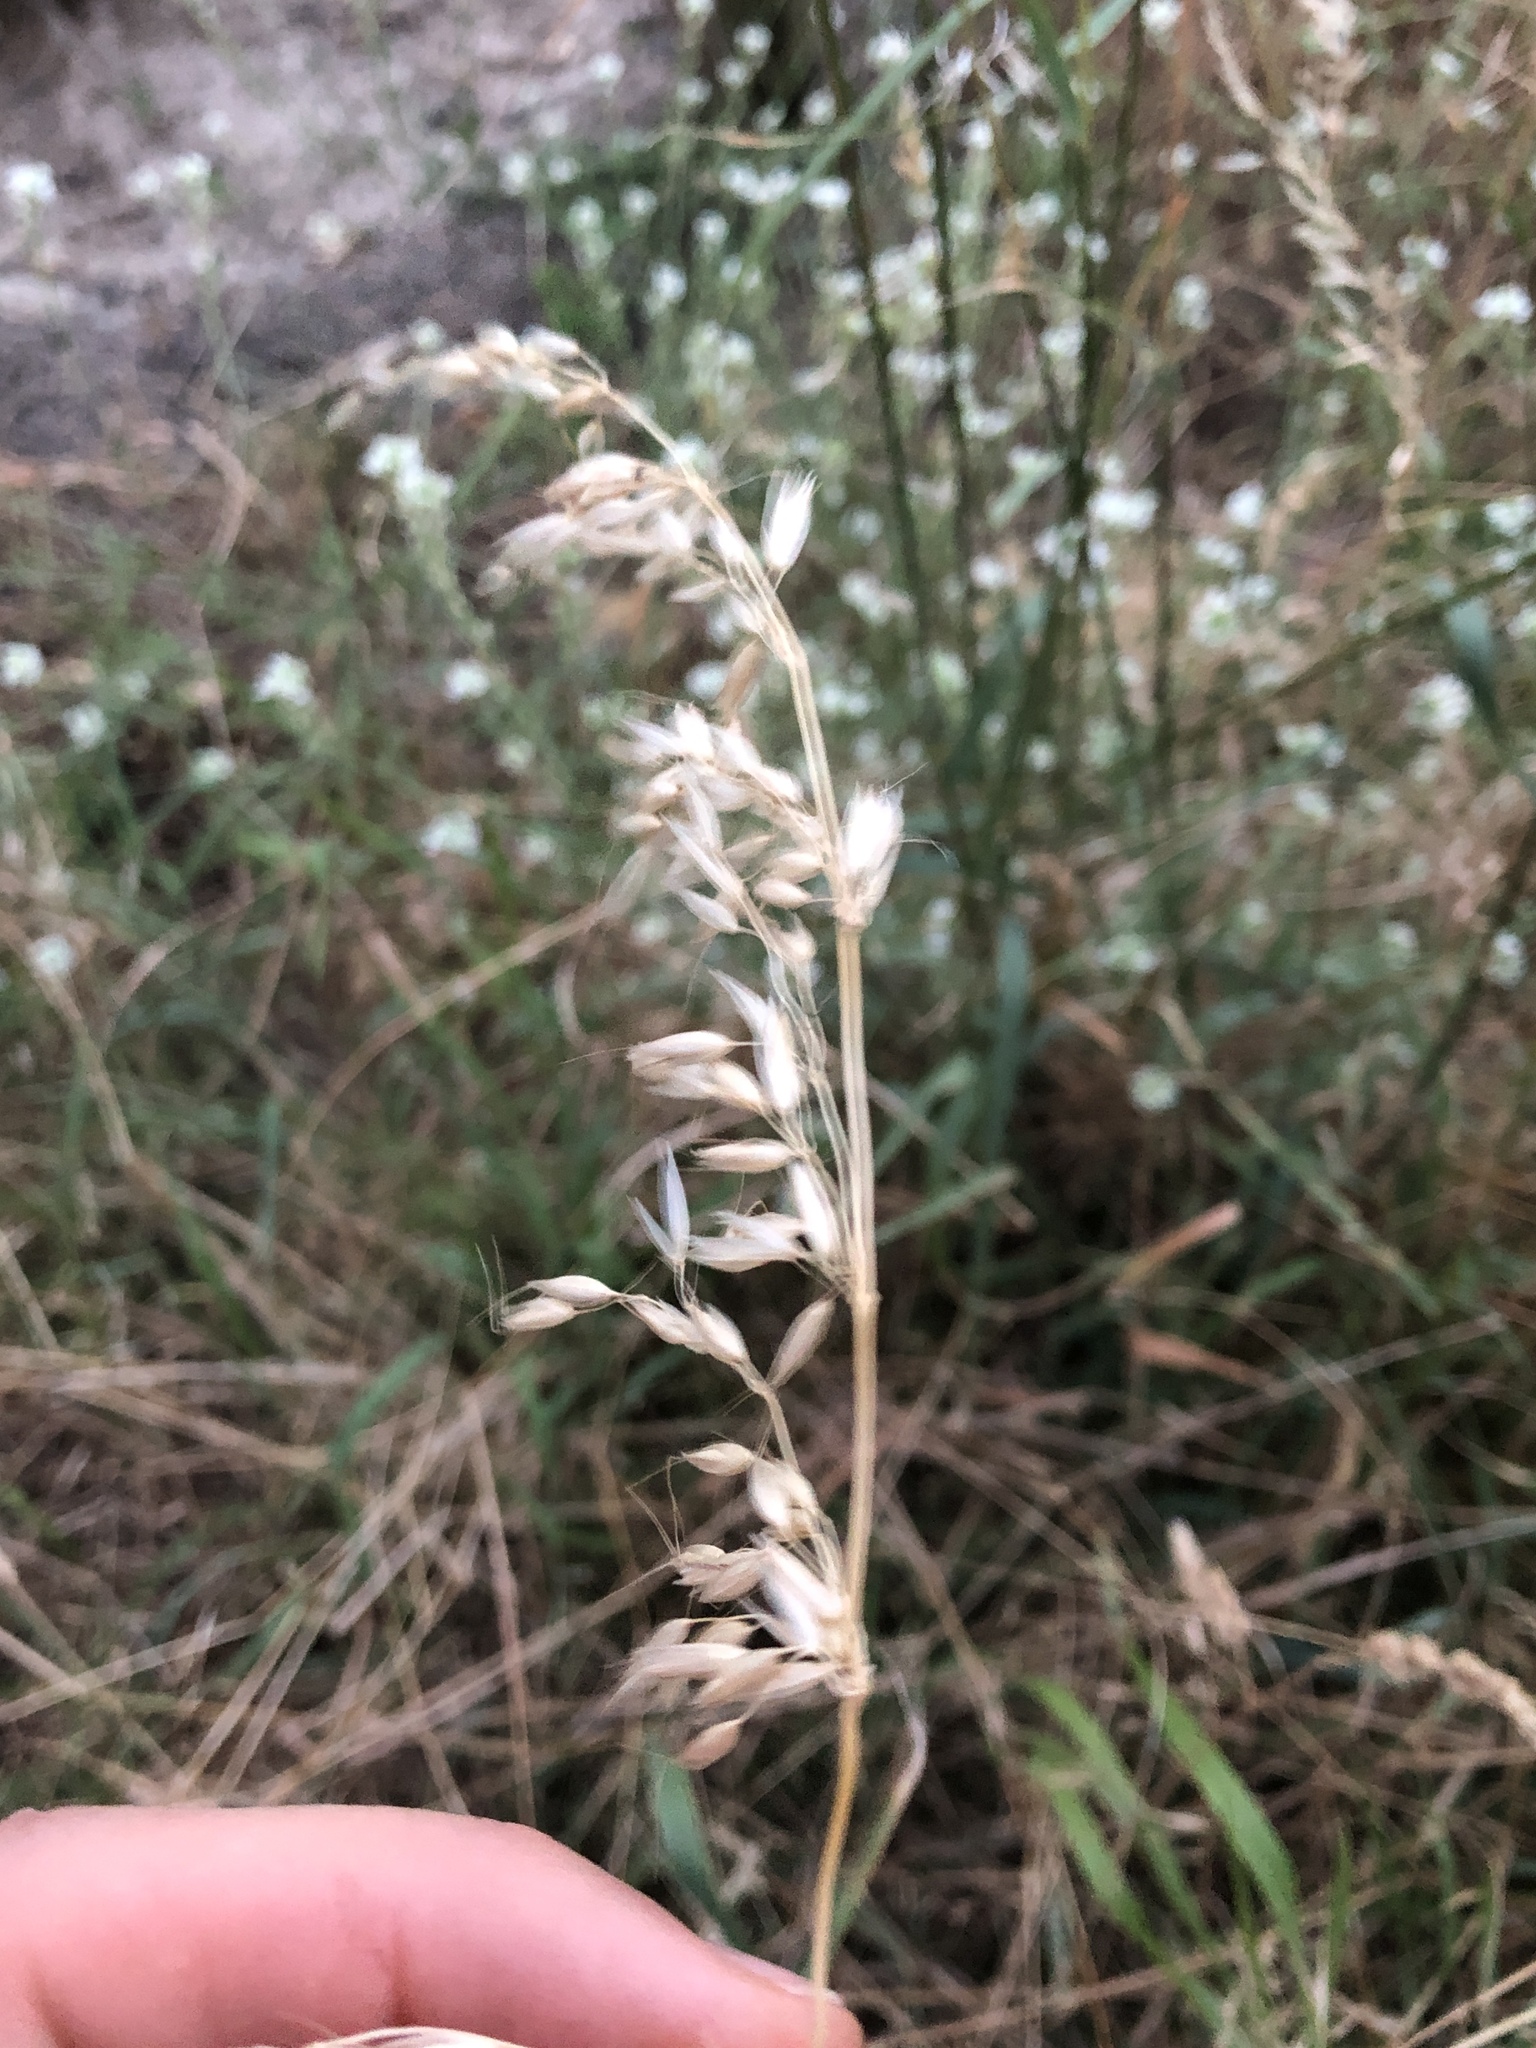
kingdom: Plantae
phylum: Tracheophyta
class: Liliopsida
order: Poales
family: Poaceae
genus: Arrhenatherum
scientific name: Arrhenatherum elatius
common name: Tall oatgrass
